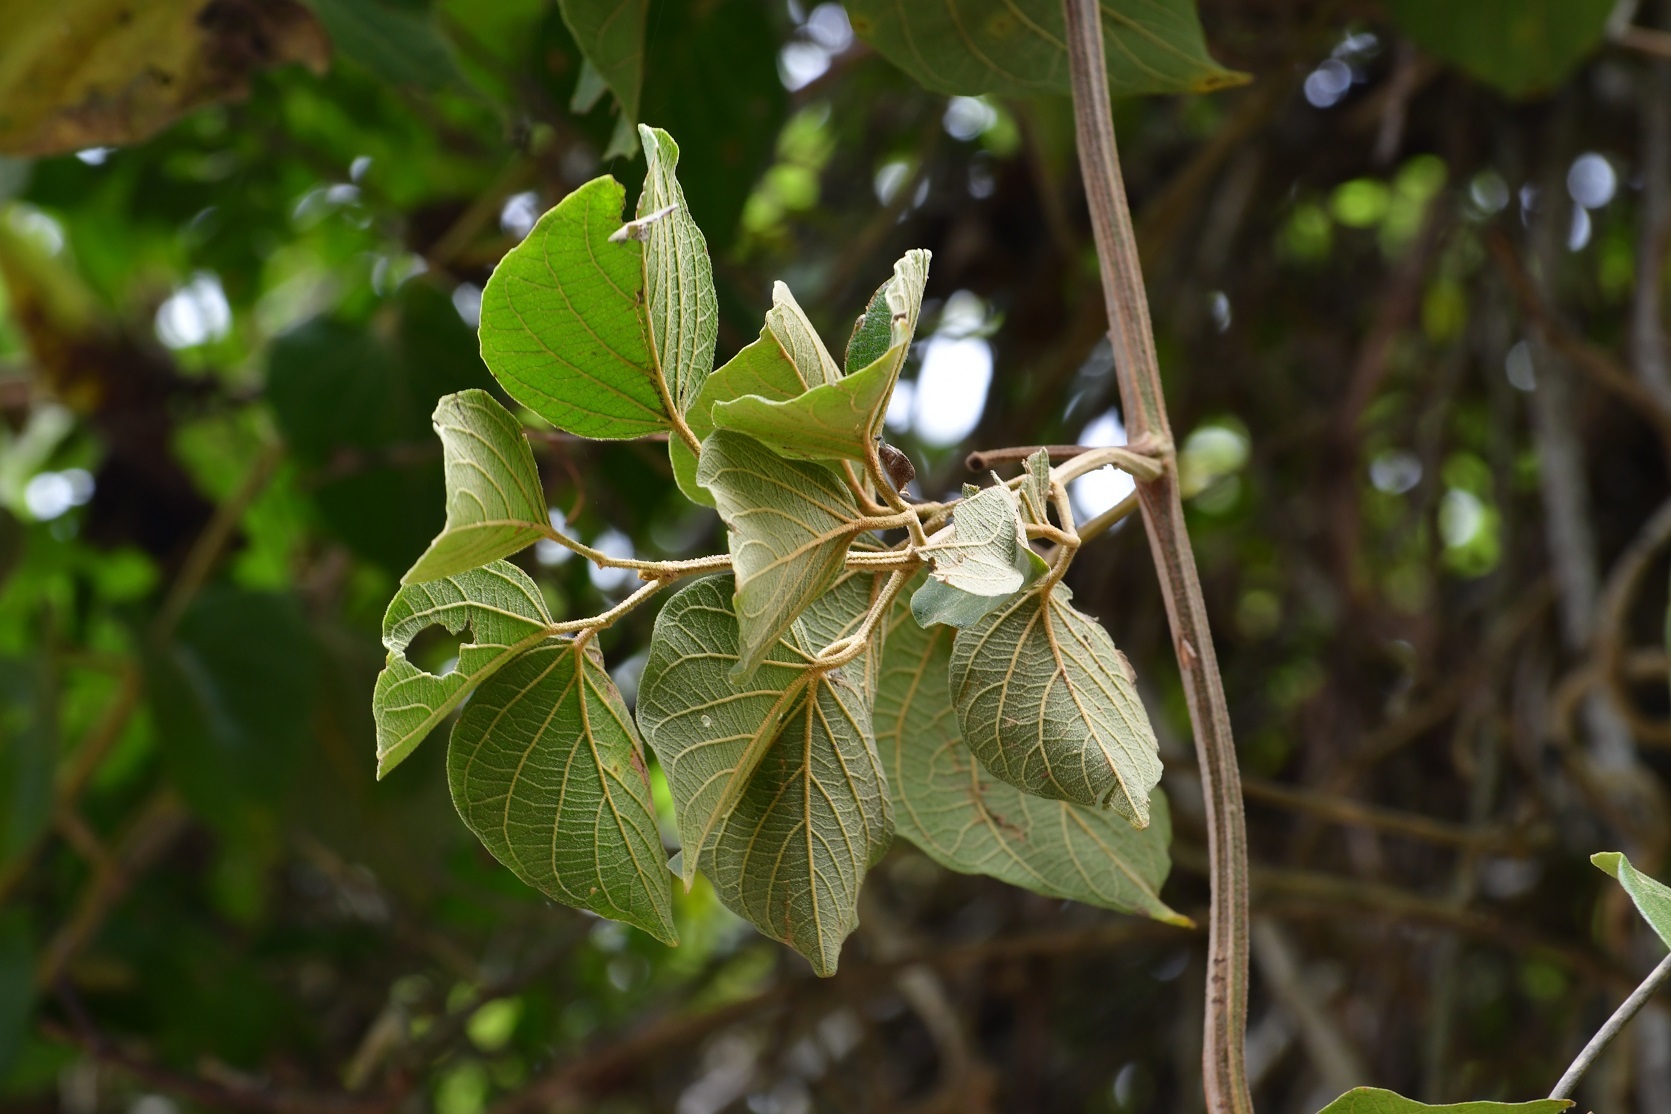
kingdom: Plantae
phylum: Tracheophyta
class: Magnoliopsida
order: Lamiales
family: Bignoniaceae
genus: Amphilophium
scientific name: Amphilophium paniculatum
